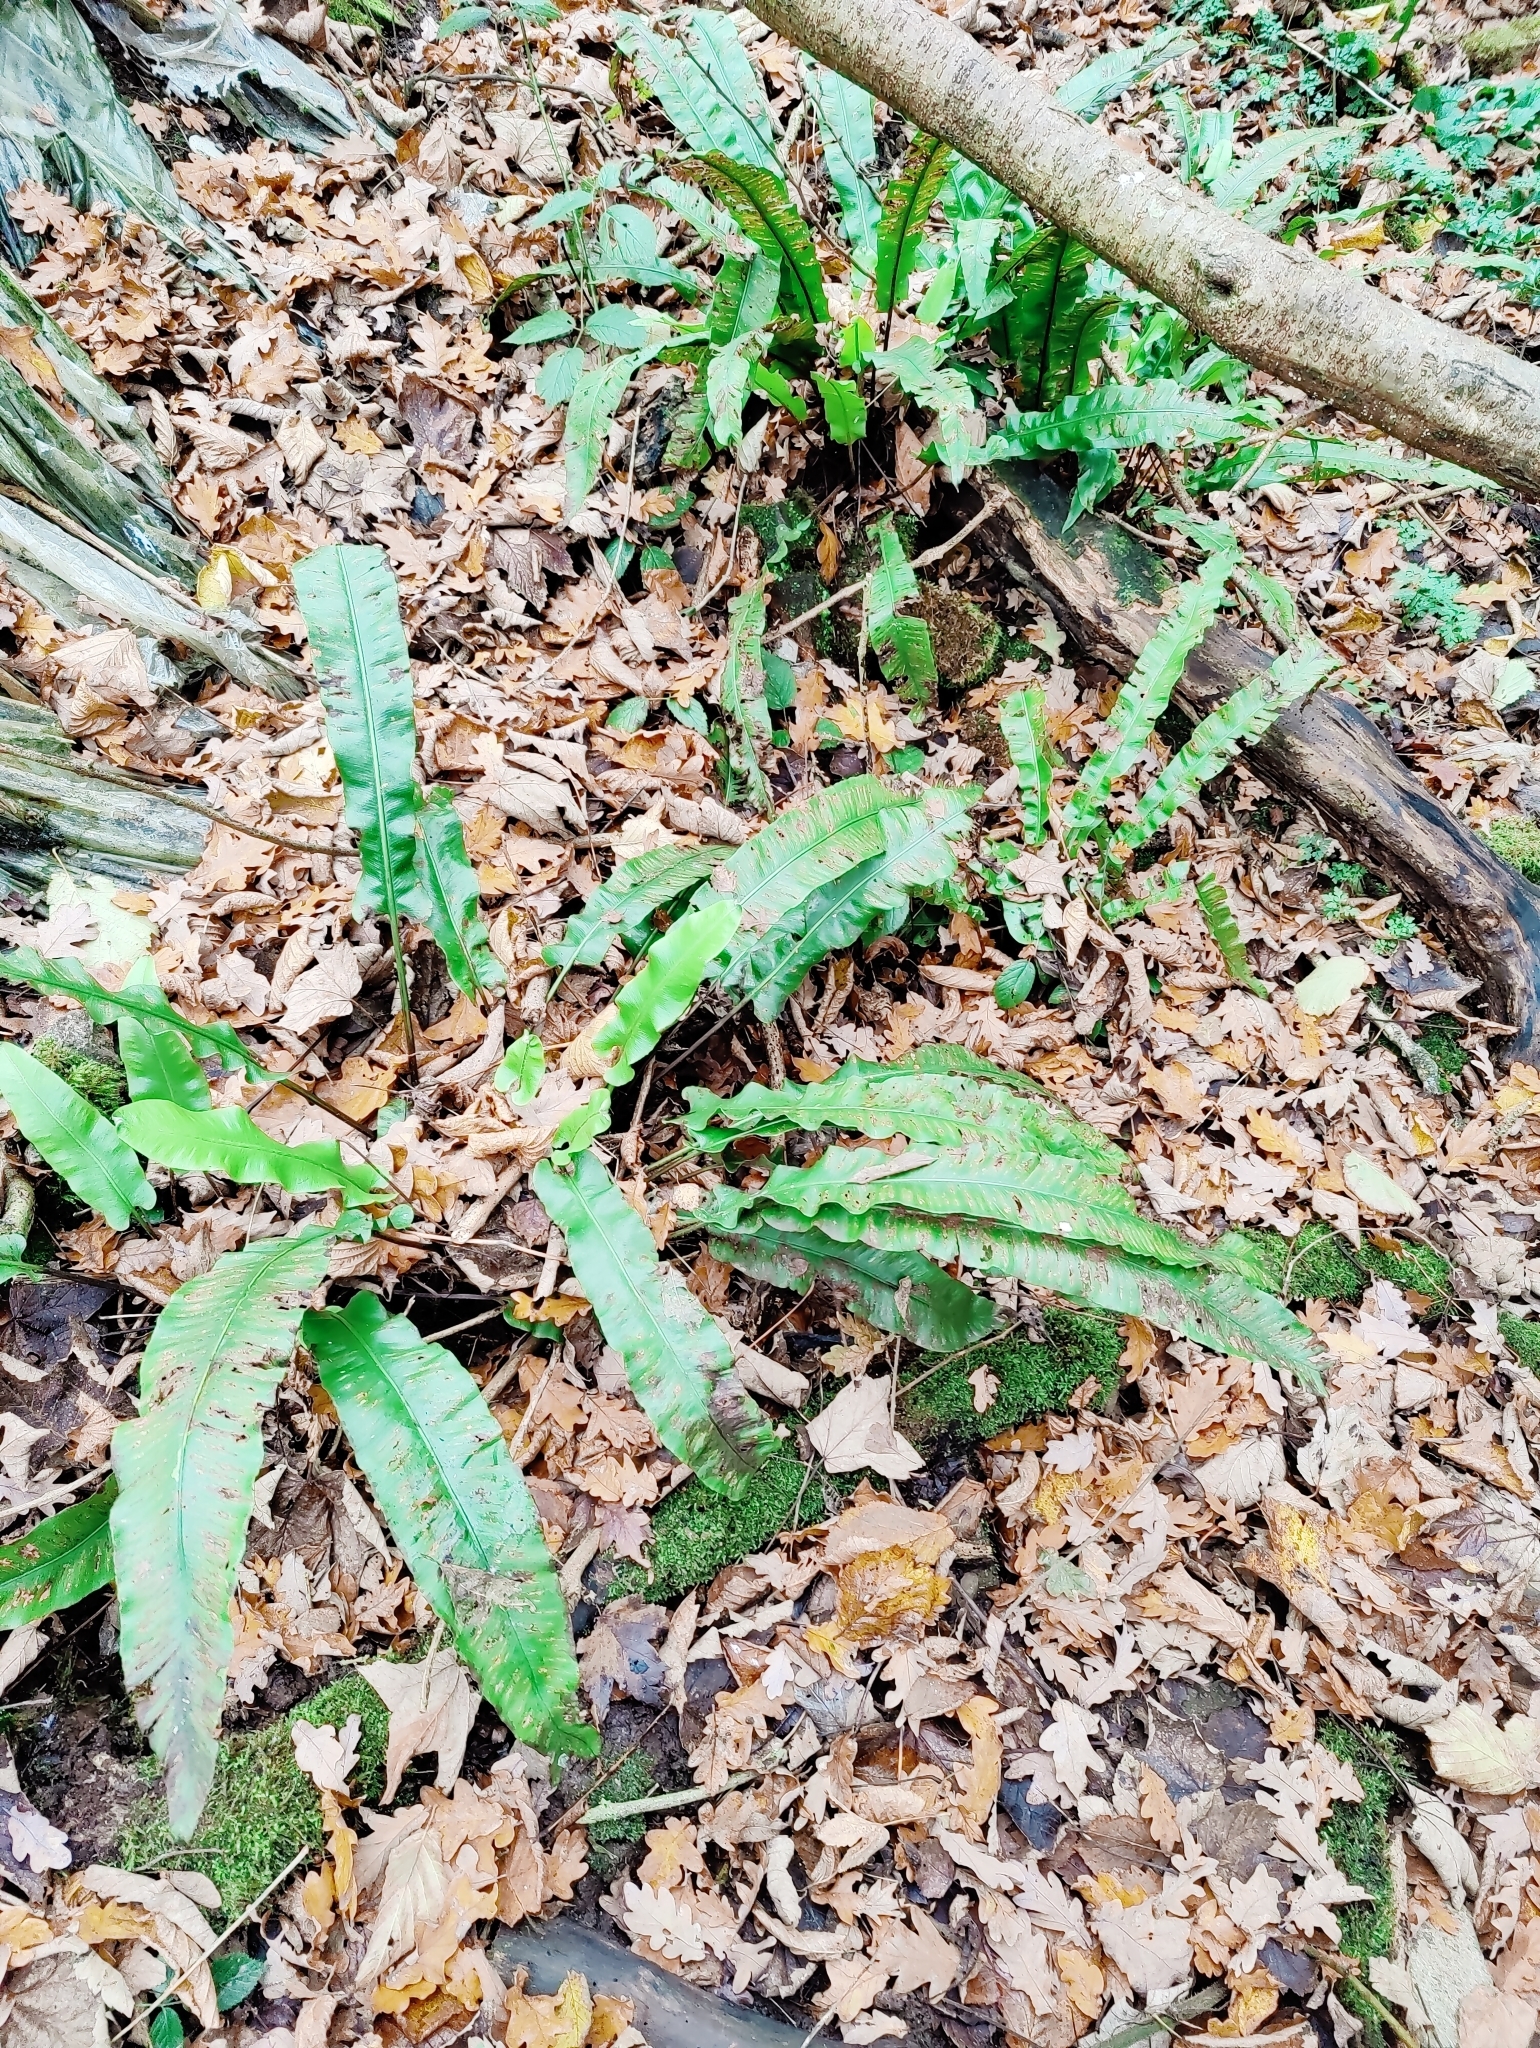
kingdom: Plantae
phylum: Tracheophyta
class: Polypodiopsida
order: Polypodiales
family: Aspleniaceae
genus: Asplenium
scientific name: Asplenium scolopendrium
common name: Hart's-tongue fern
